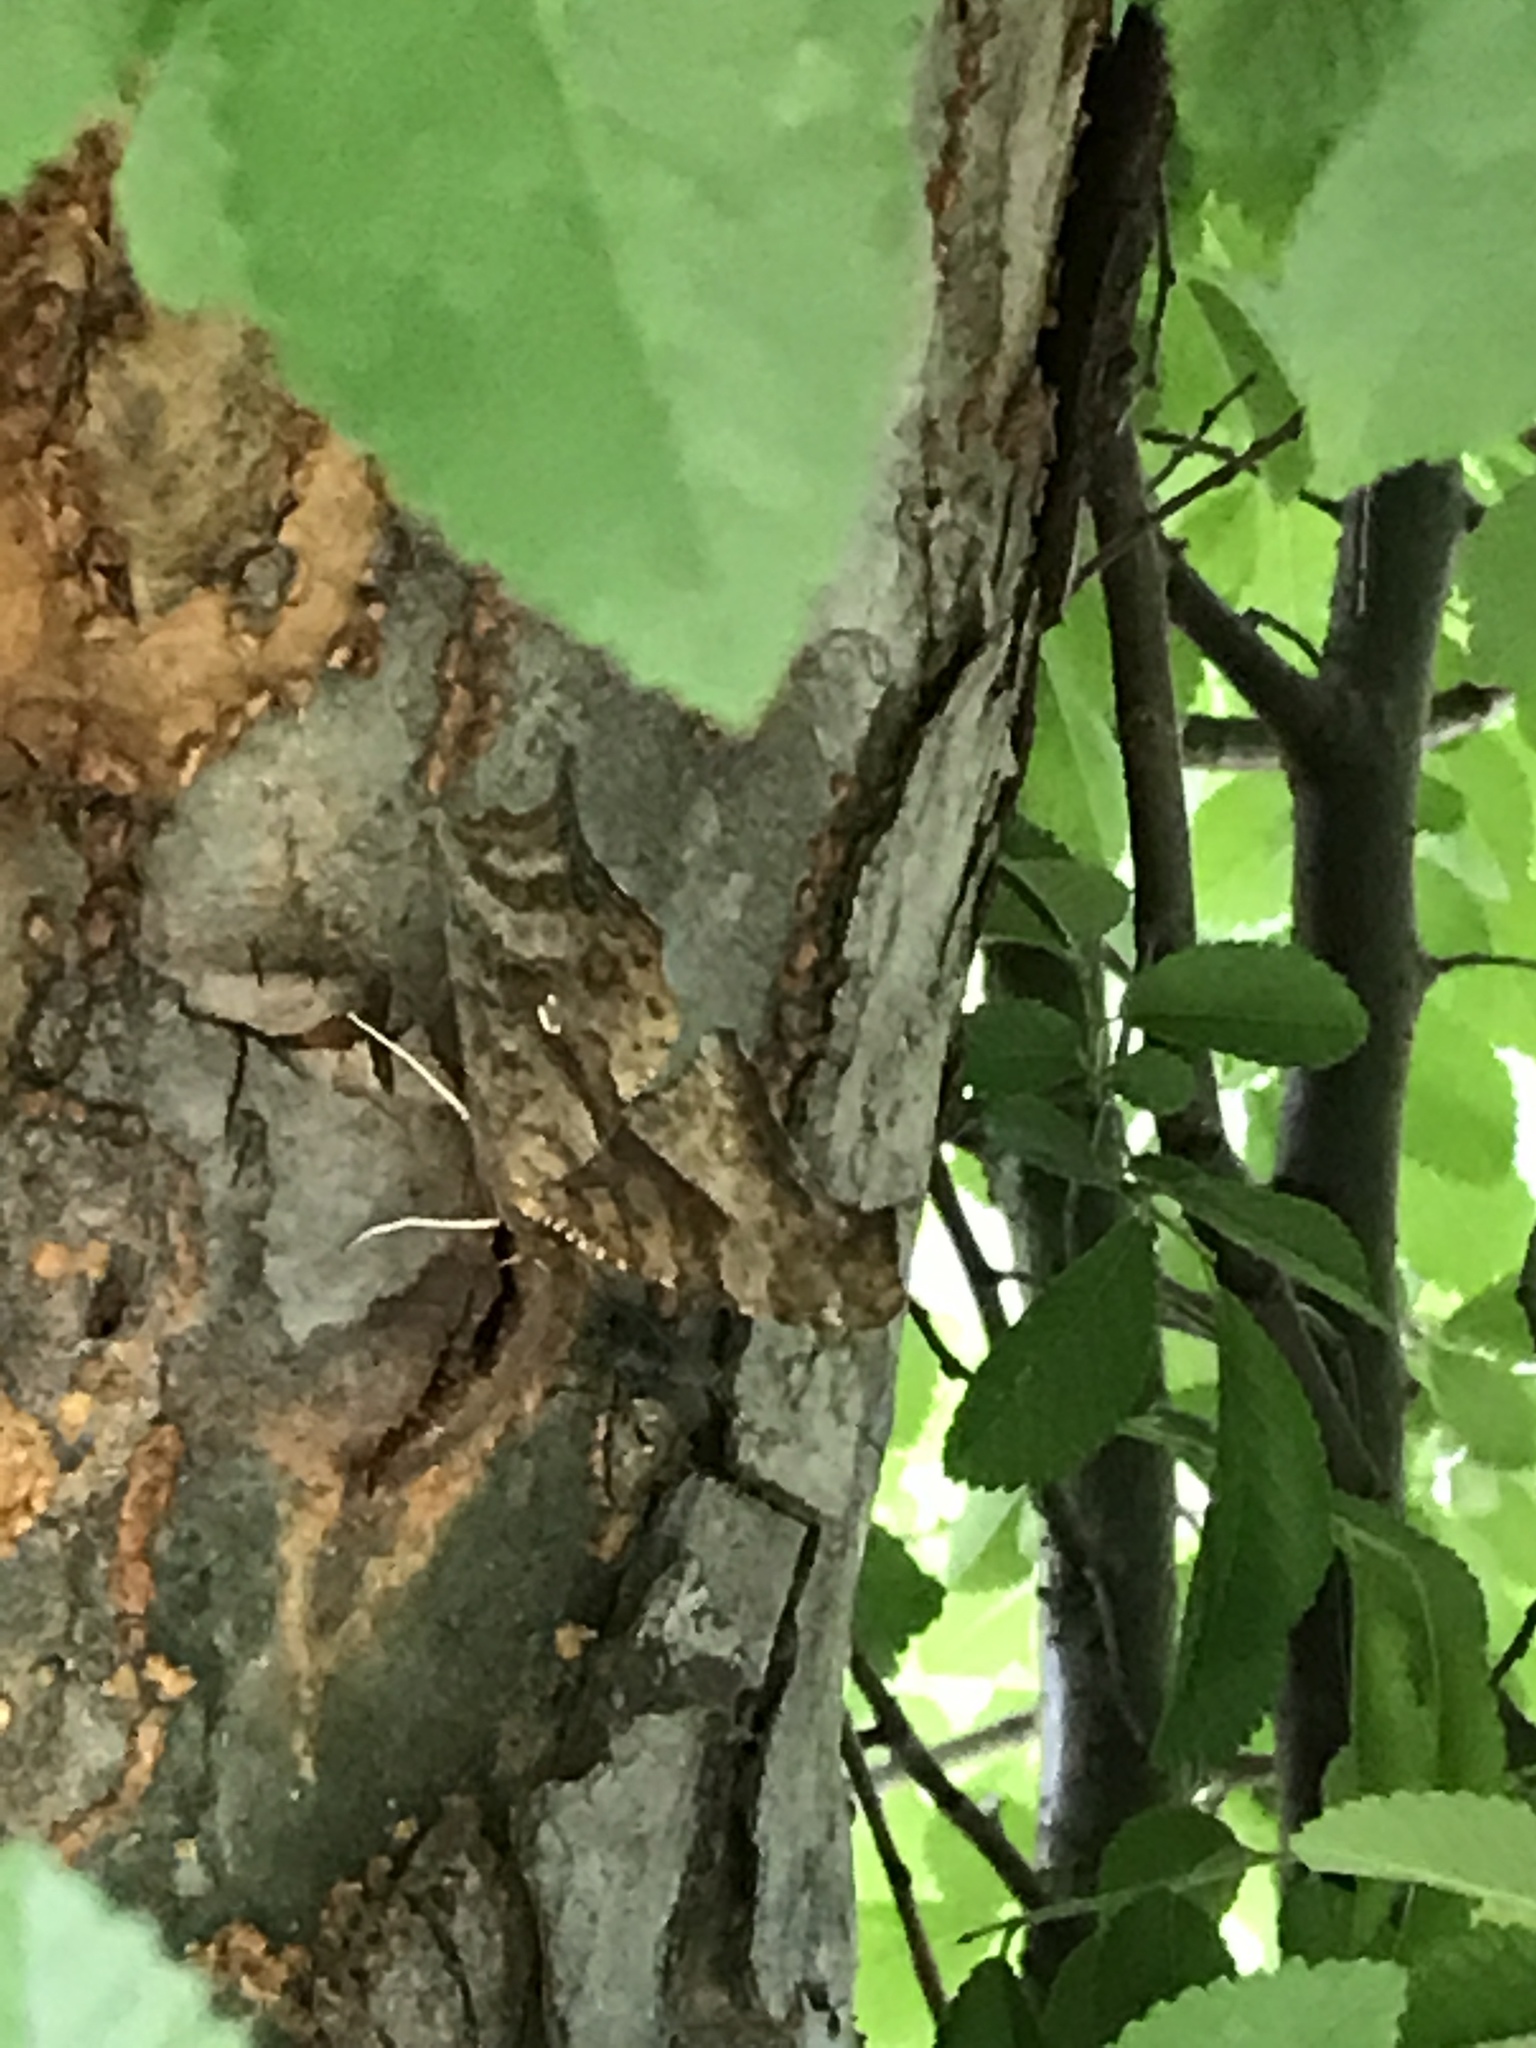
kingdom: Animalia
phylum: Arthropoda
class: Insecta
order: Lepidoptera
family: Nymphalidae
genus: Polygonia
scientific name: Polygonia interrogationis
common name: Question mark
